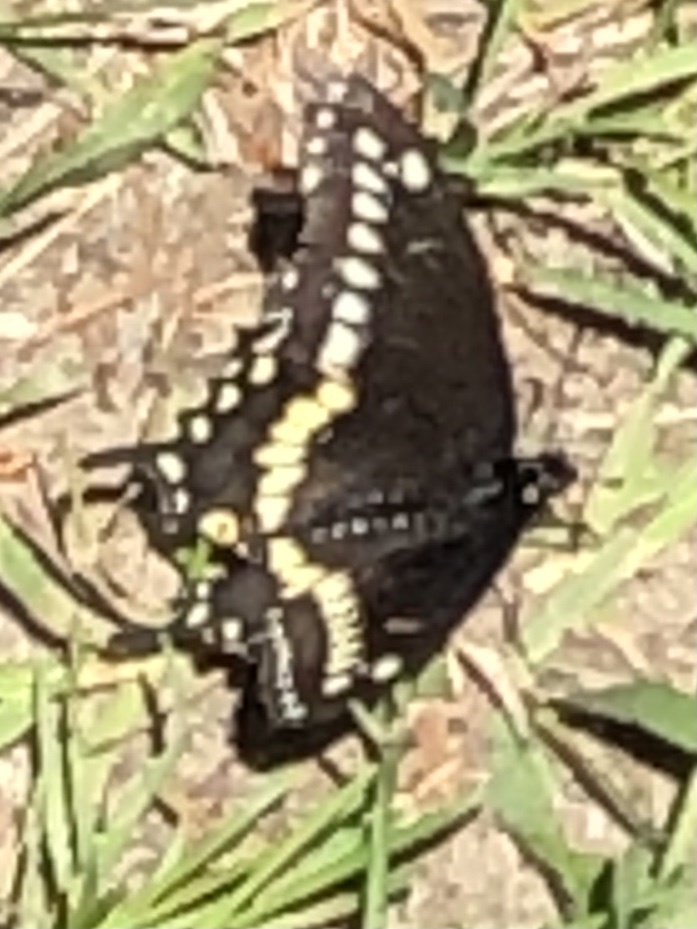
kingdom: Animalia
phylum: Arthropoda
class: Insecta
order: Lepidoptera
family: Papilionidae
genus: Papilio
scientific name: Papilio polyxenes
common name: Black swallowtail
